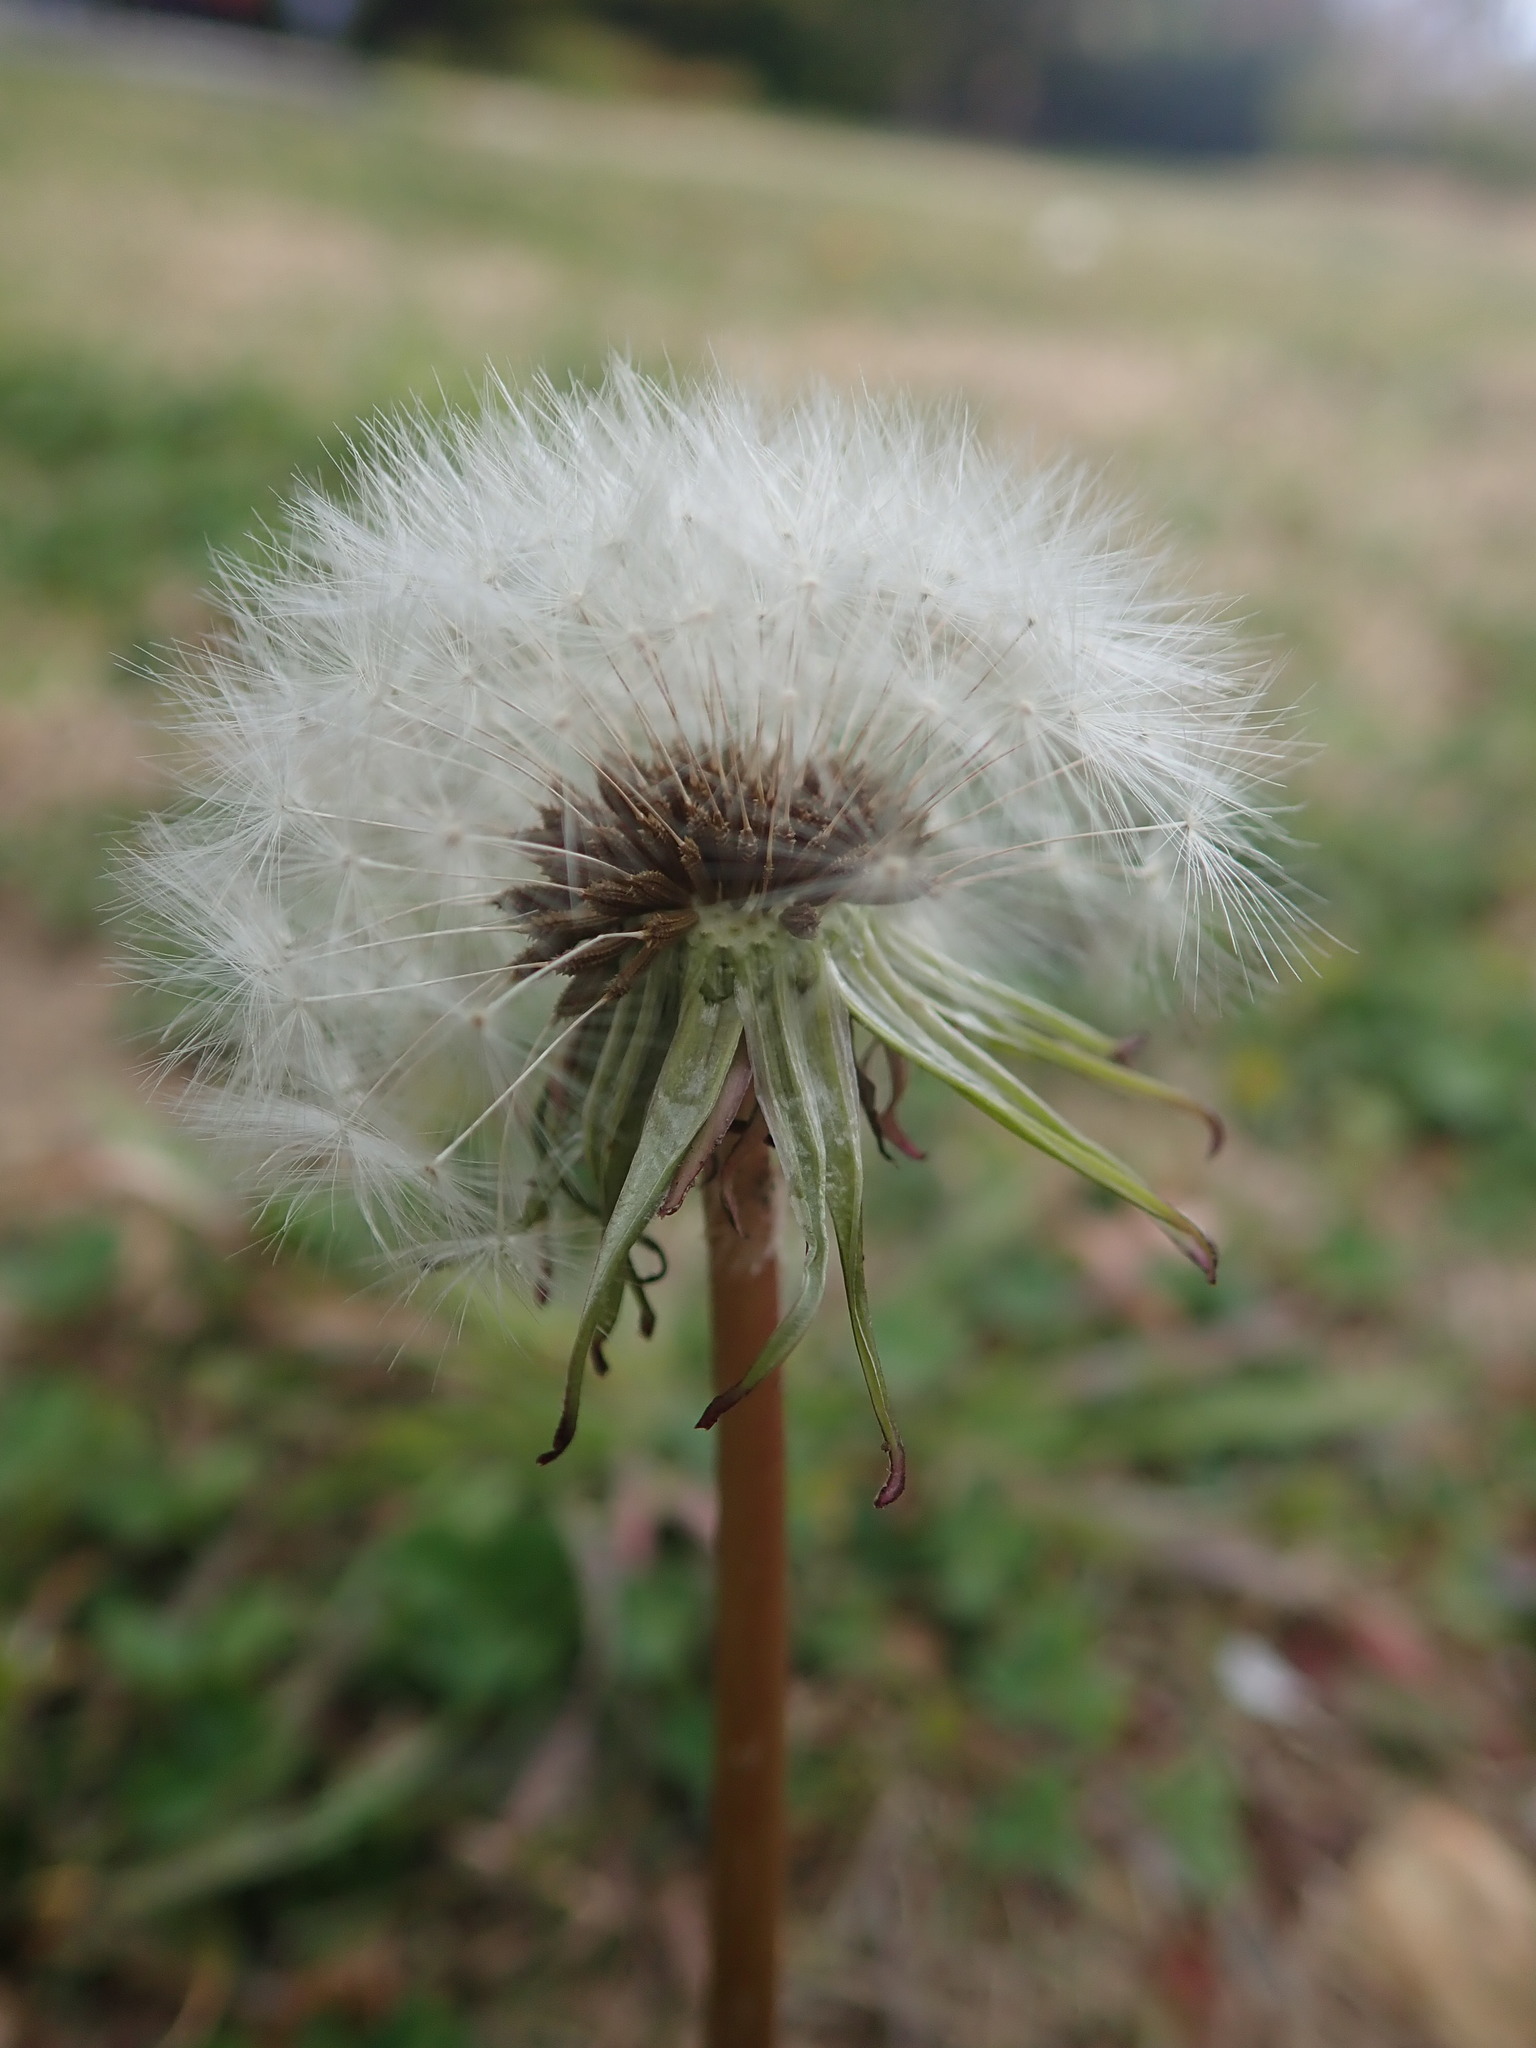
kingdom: Plantae
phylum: Tracheophyta
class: Magnoliopsida
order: Asterales
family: Asteraceae
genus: Taraxacum
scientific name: Taraxacum officinale
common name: Common dandelion
